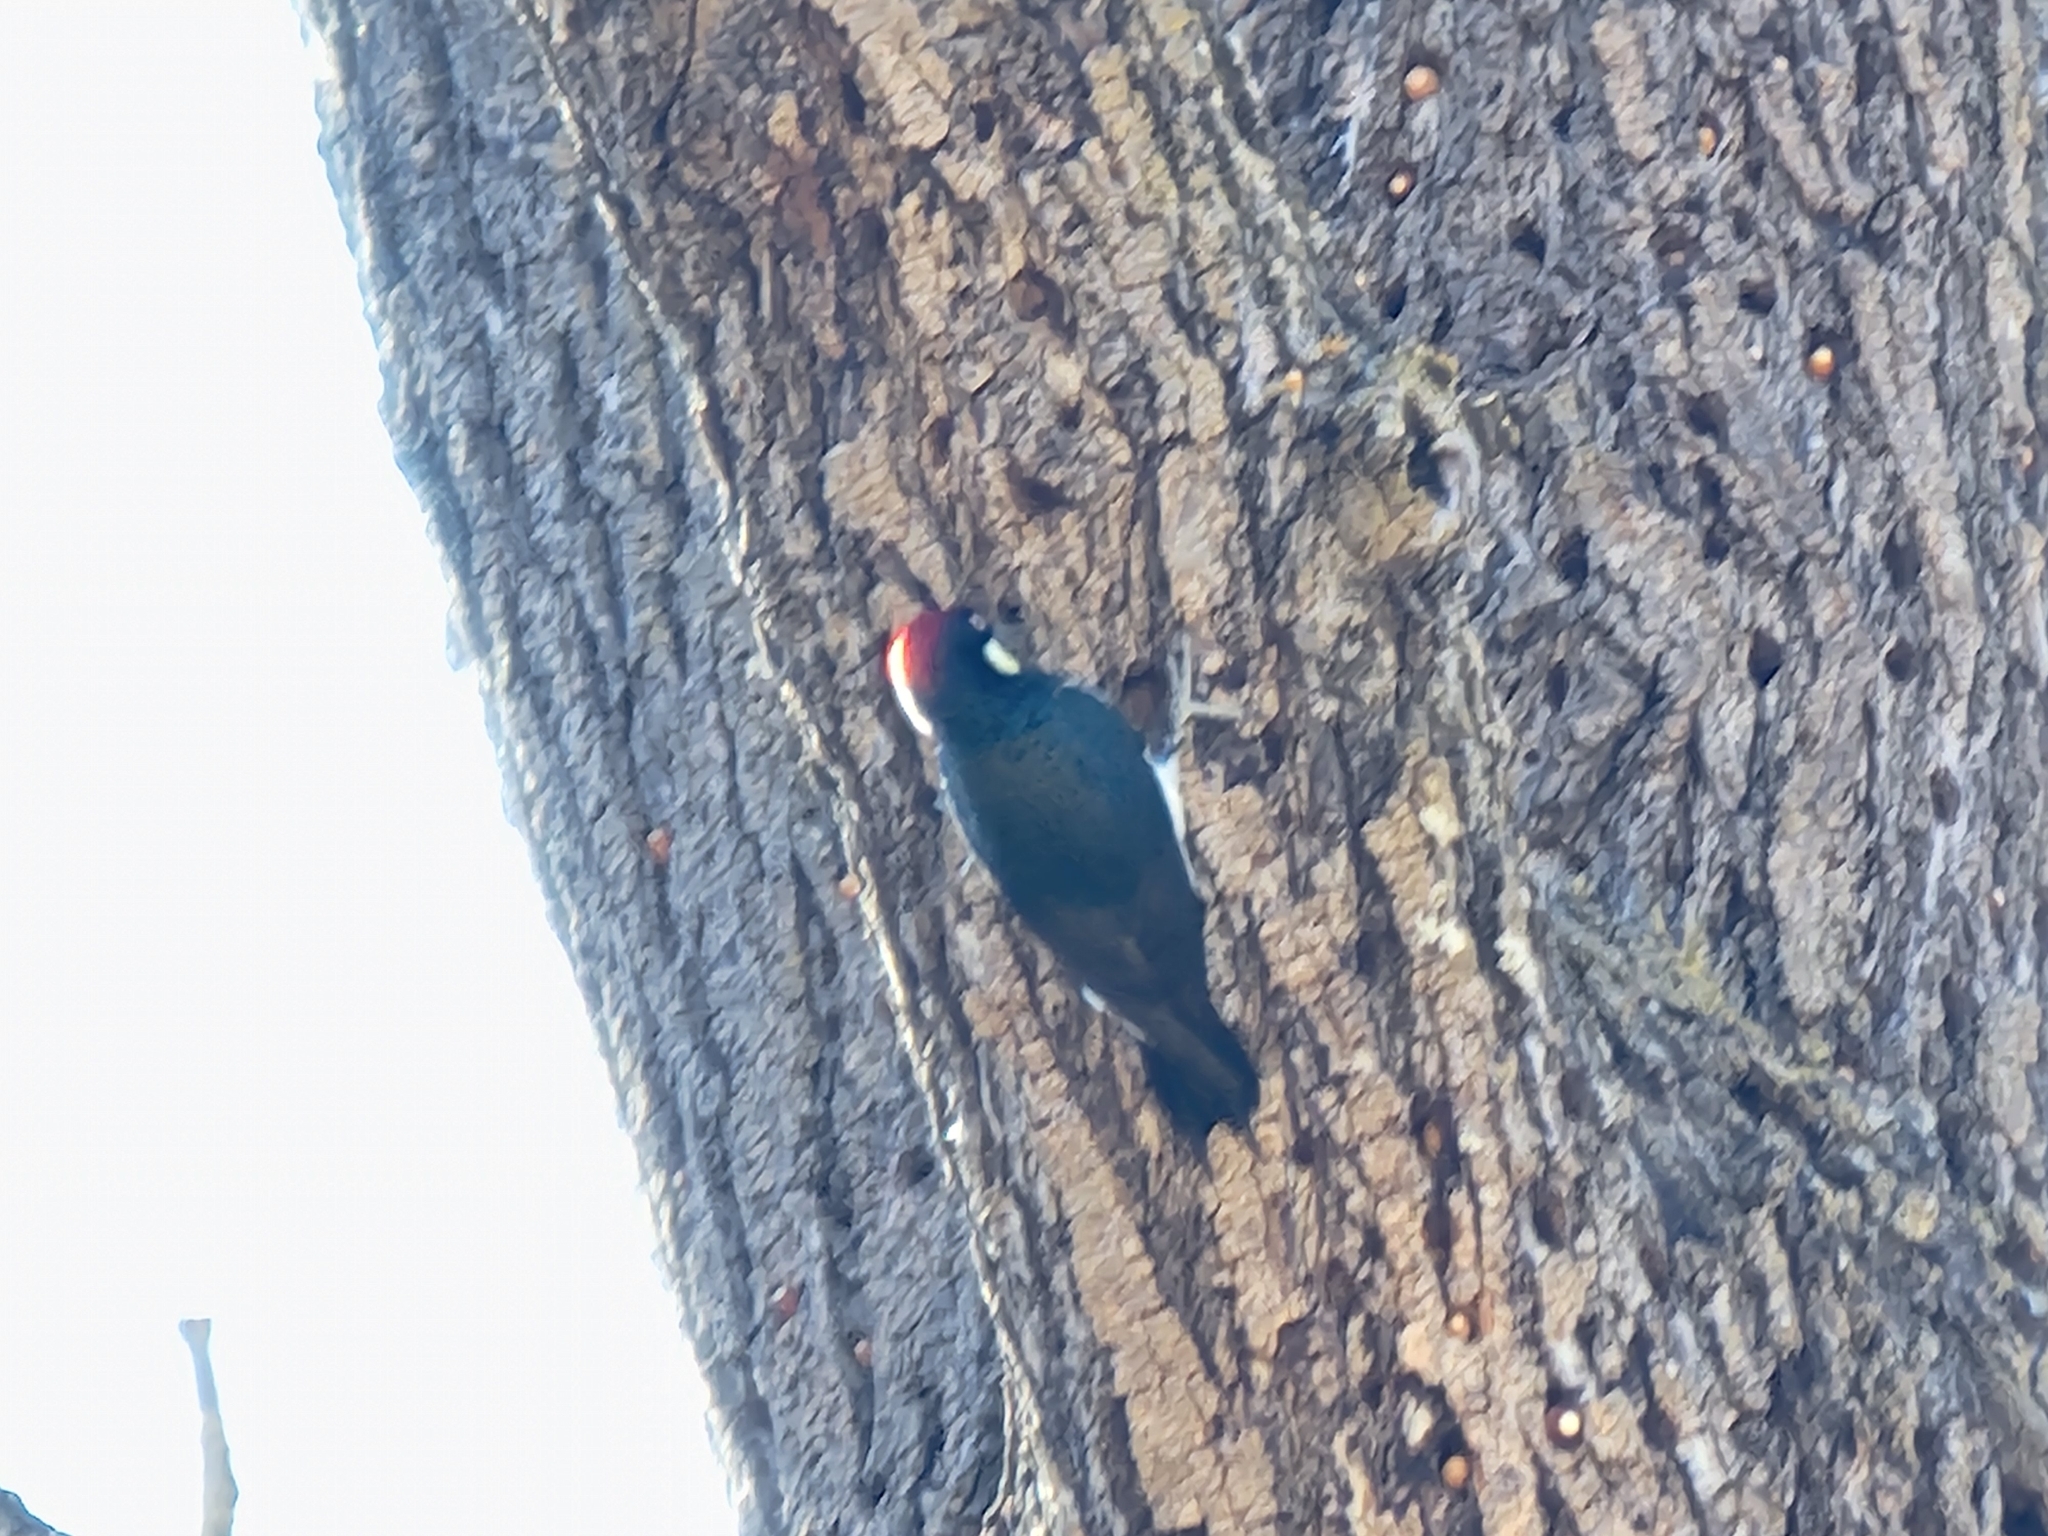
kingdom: Animalia
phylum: Chordata
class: Aves
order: Piciformes
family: Picidae
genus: Melanerpes
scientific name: Melanerpes formicivorus
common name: Acorn woodpecker
